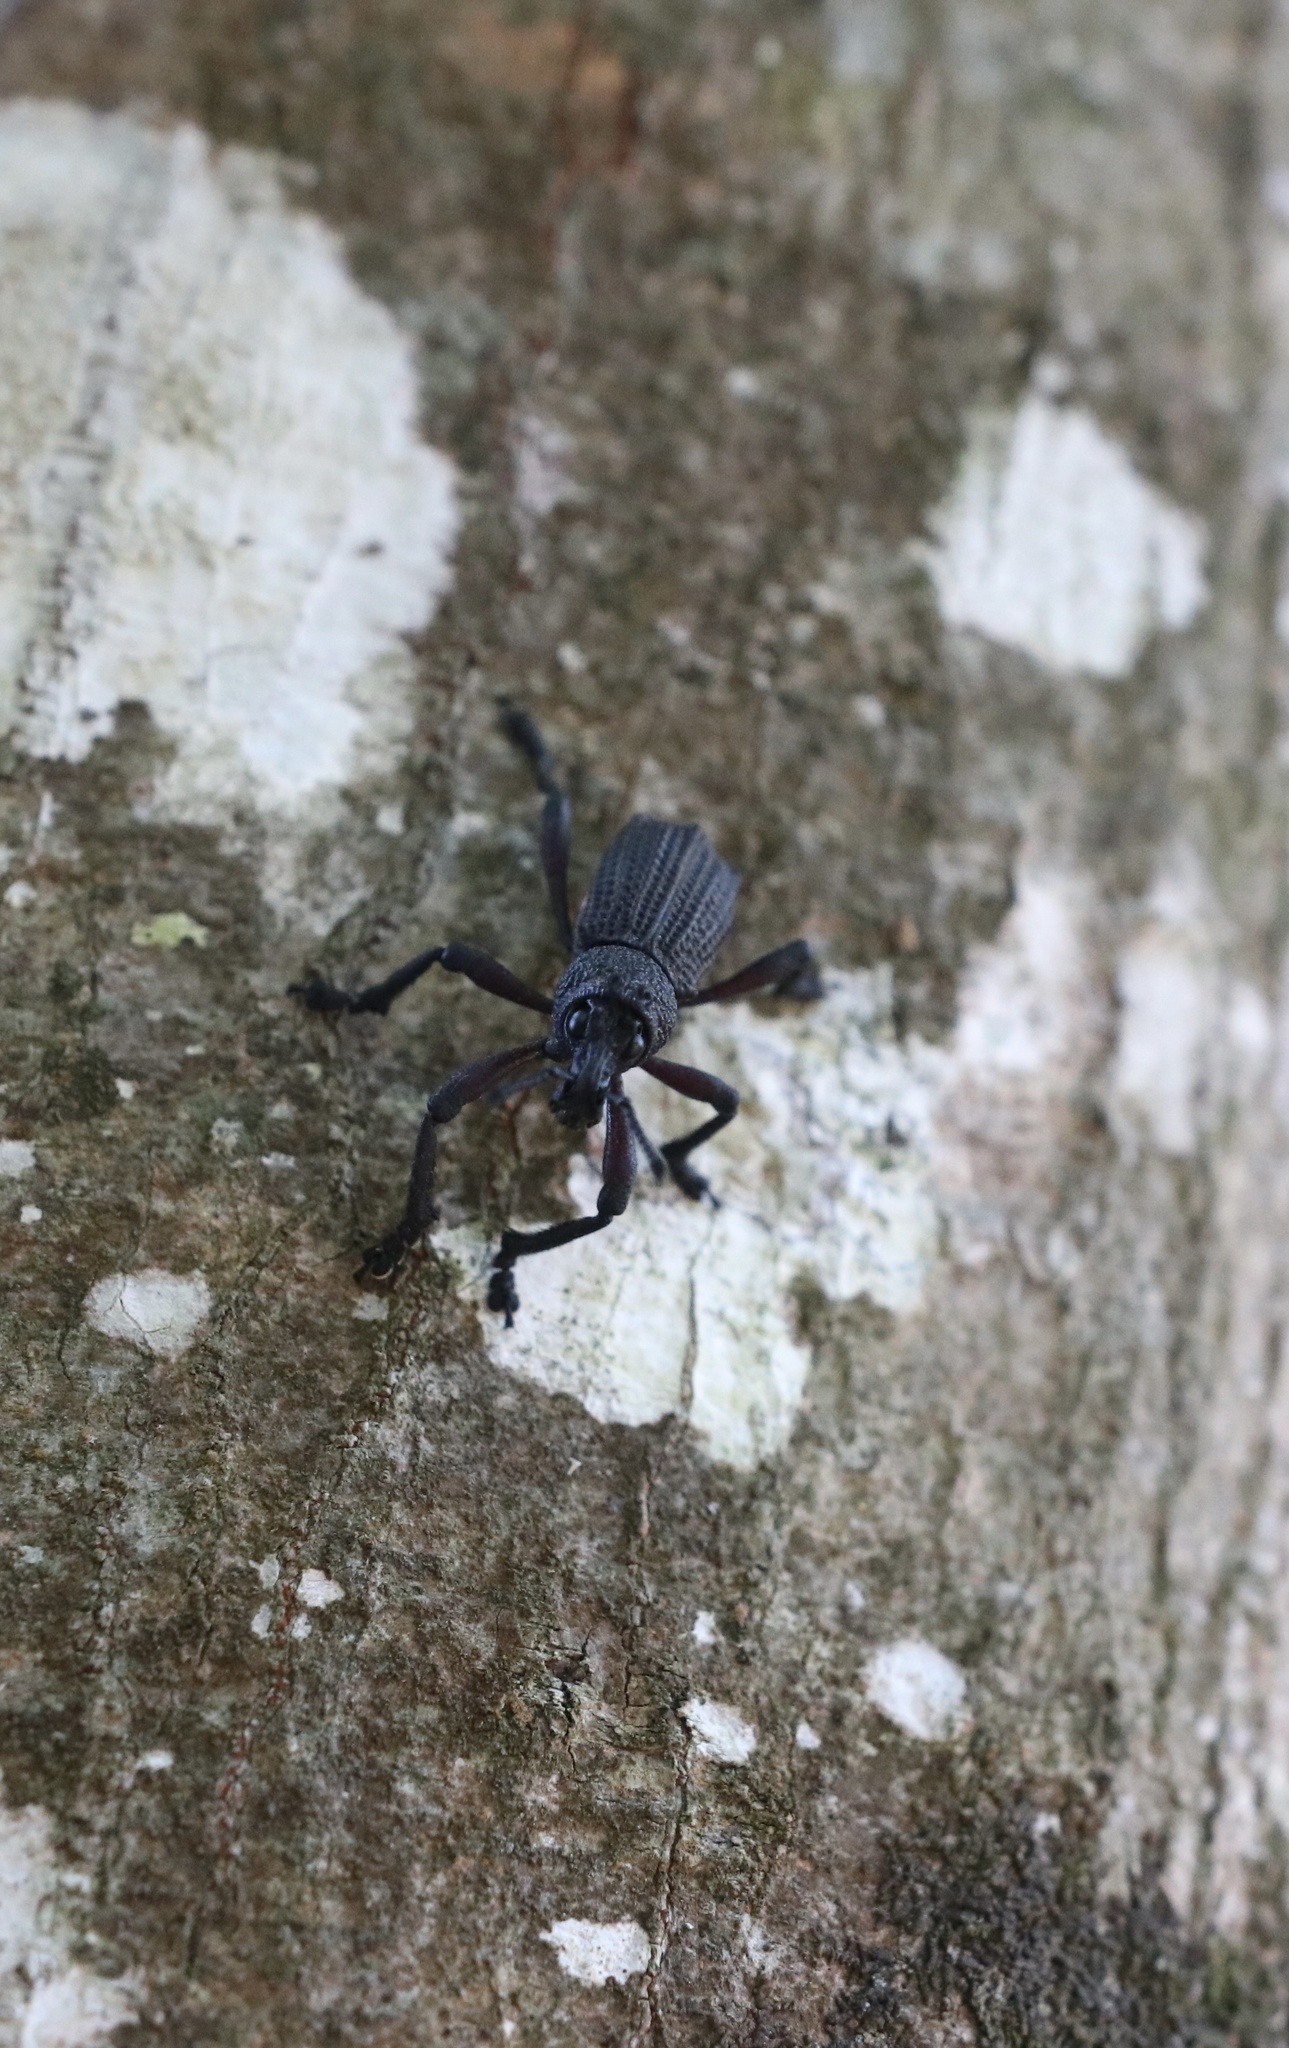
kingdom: Animalia
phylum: Arthropoda
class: Insecta
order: Coleoptera
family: Curculionidae
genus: Aegorhinus
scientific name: Aegorhinus
